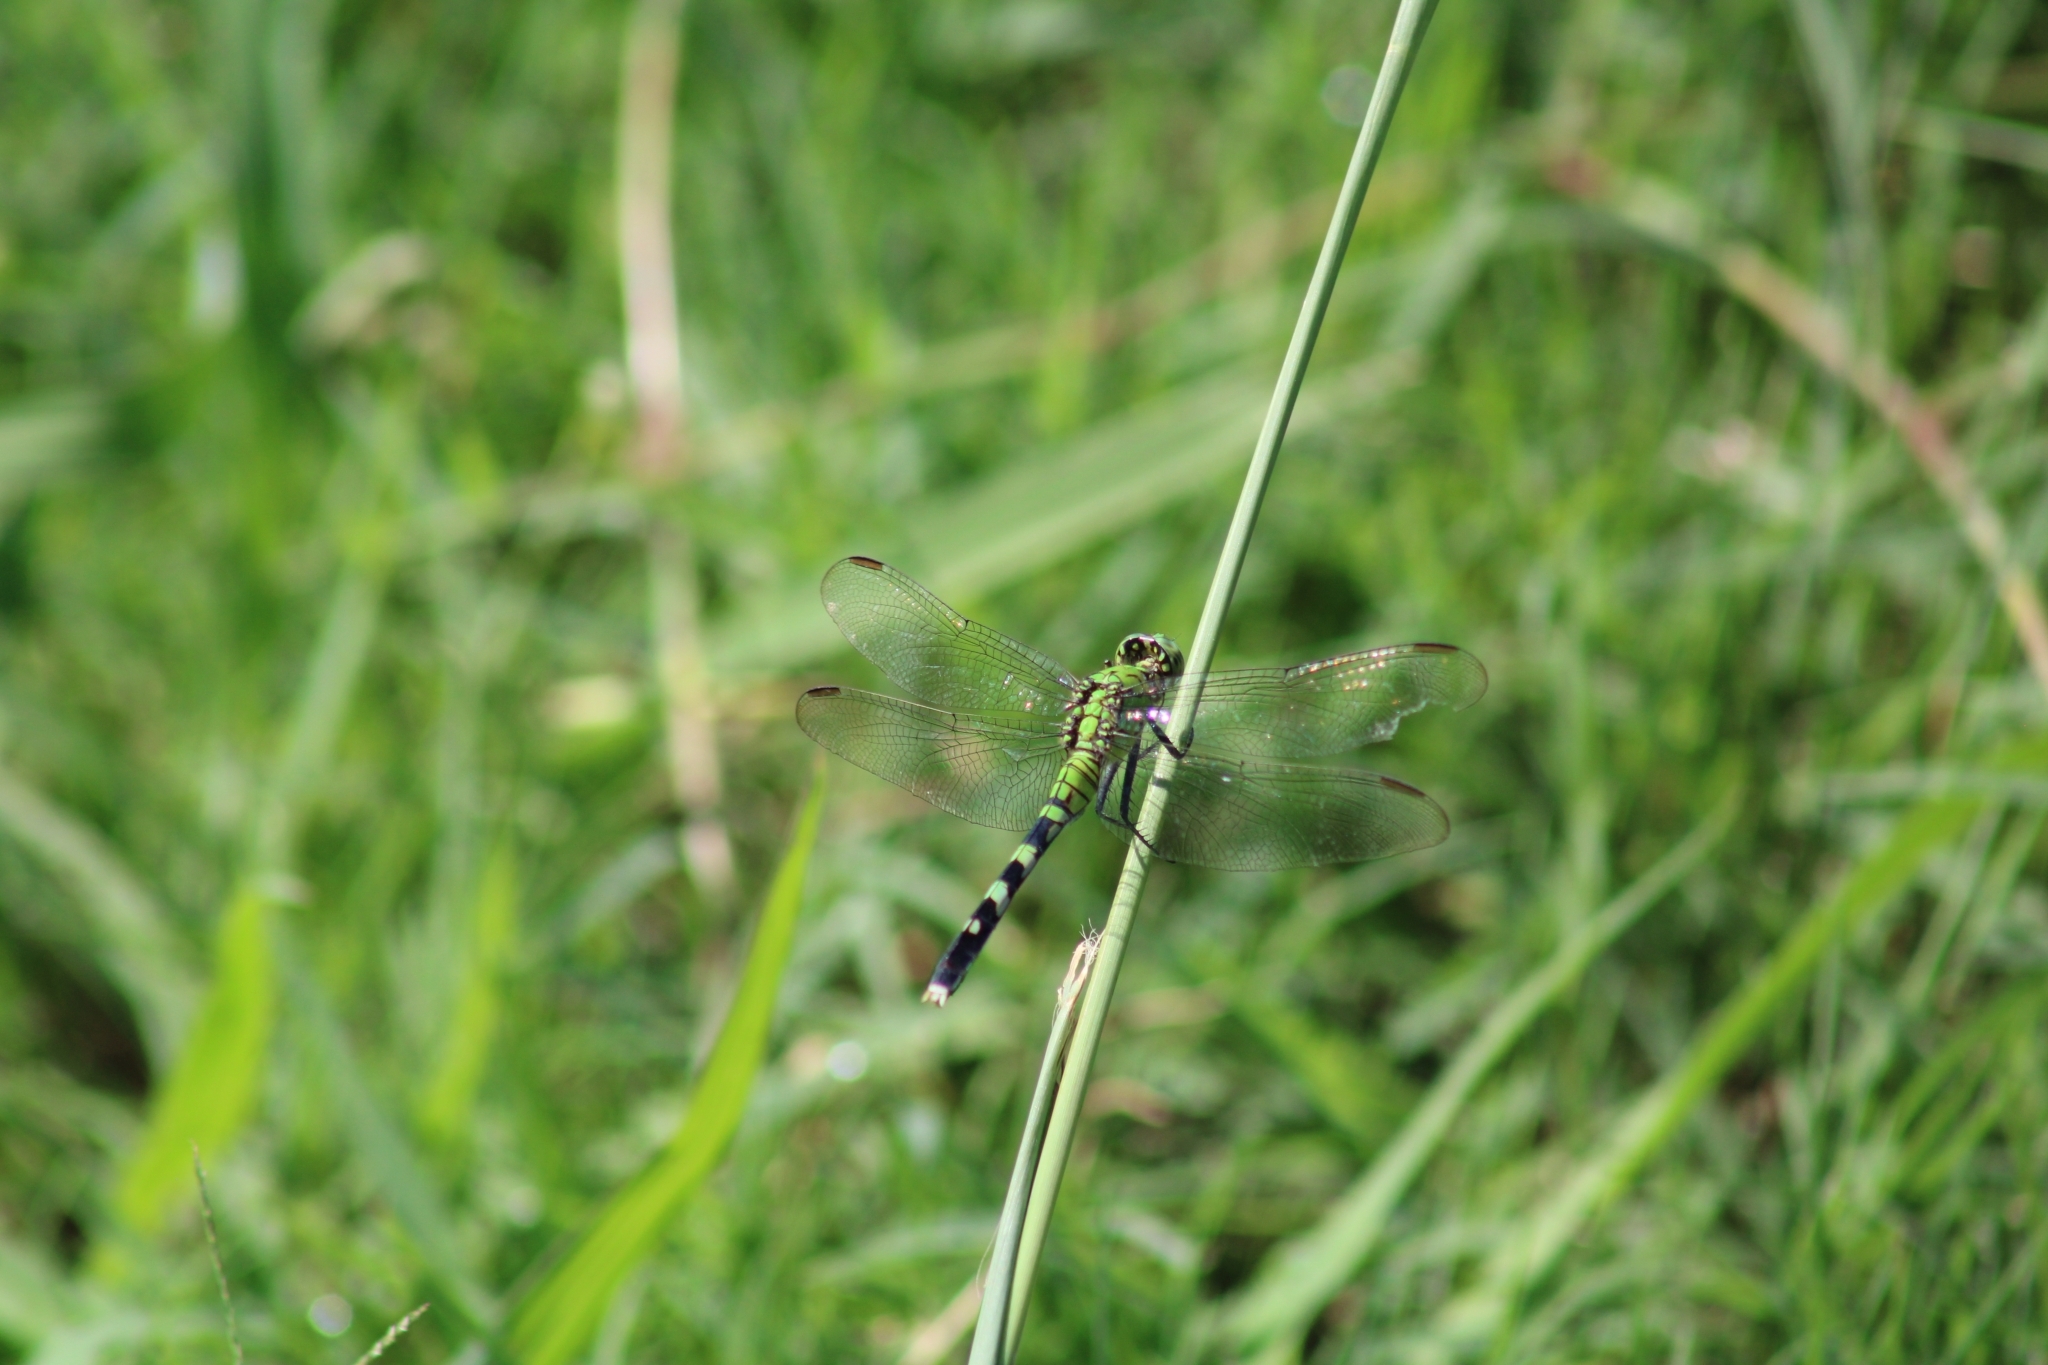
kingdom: Animalia
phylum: Arthropoda
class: Insecta
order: Odonata
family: Libellulidae
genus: Erythemis
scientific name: Erythemis simplicicollis
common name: Eastern pondhawk
